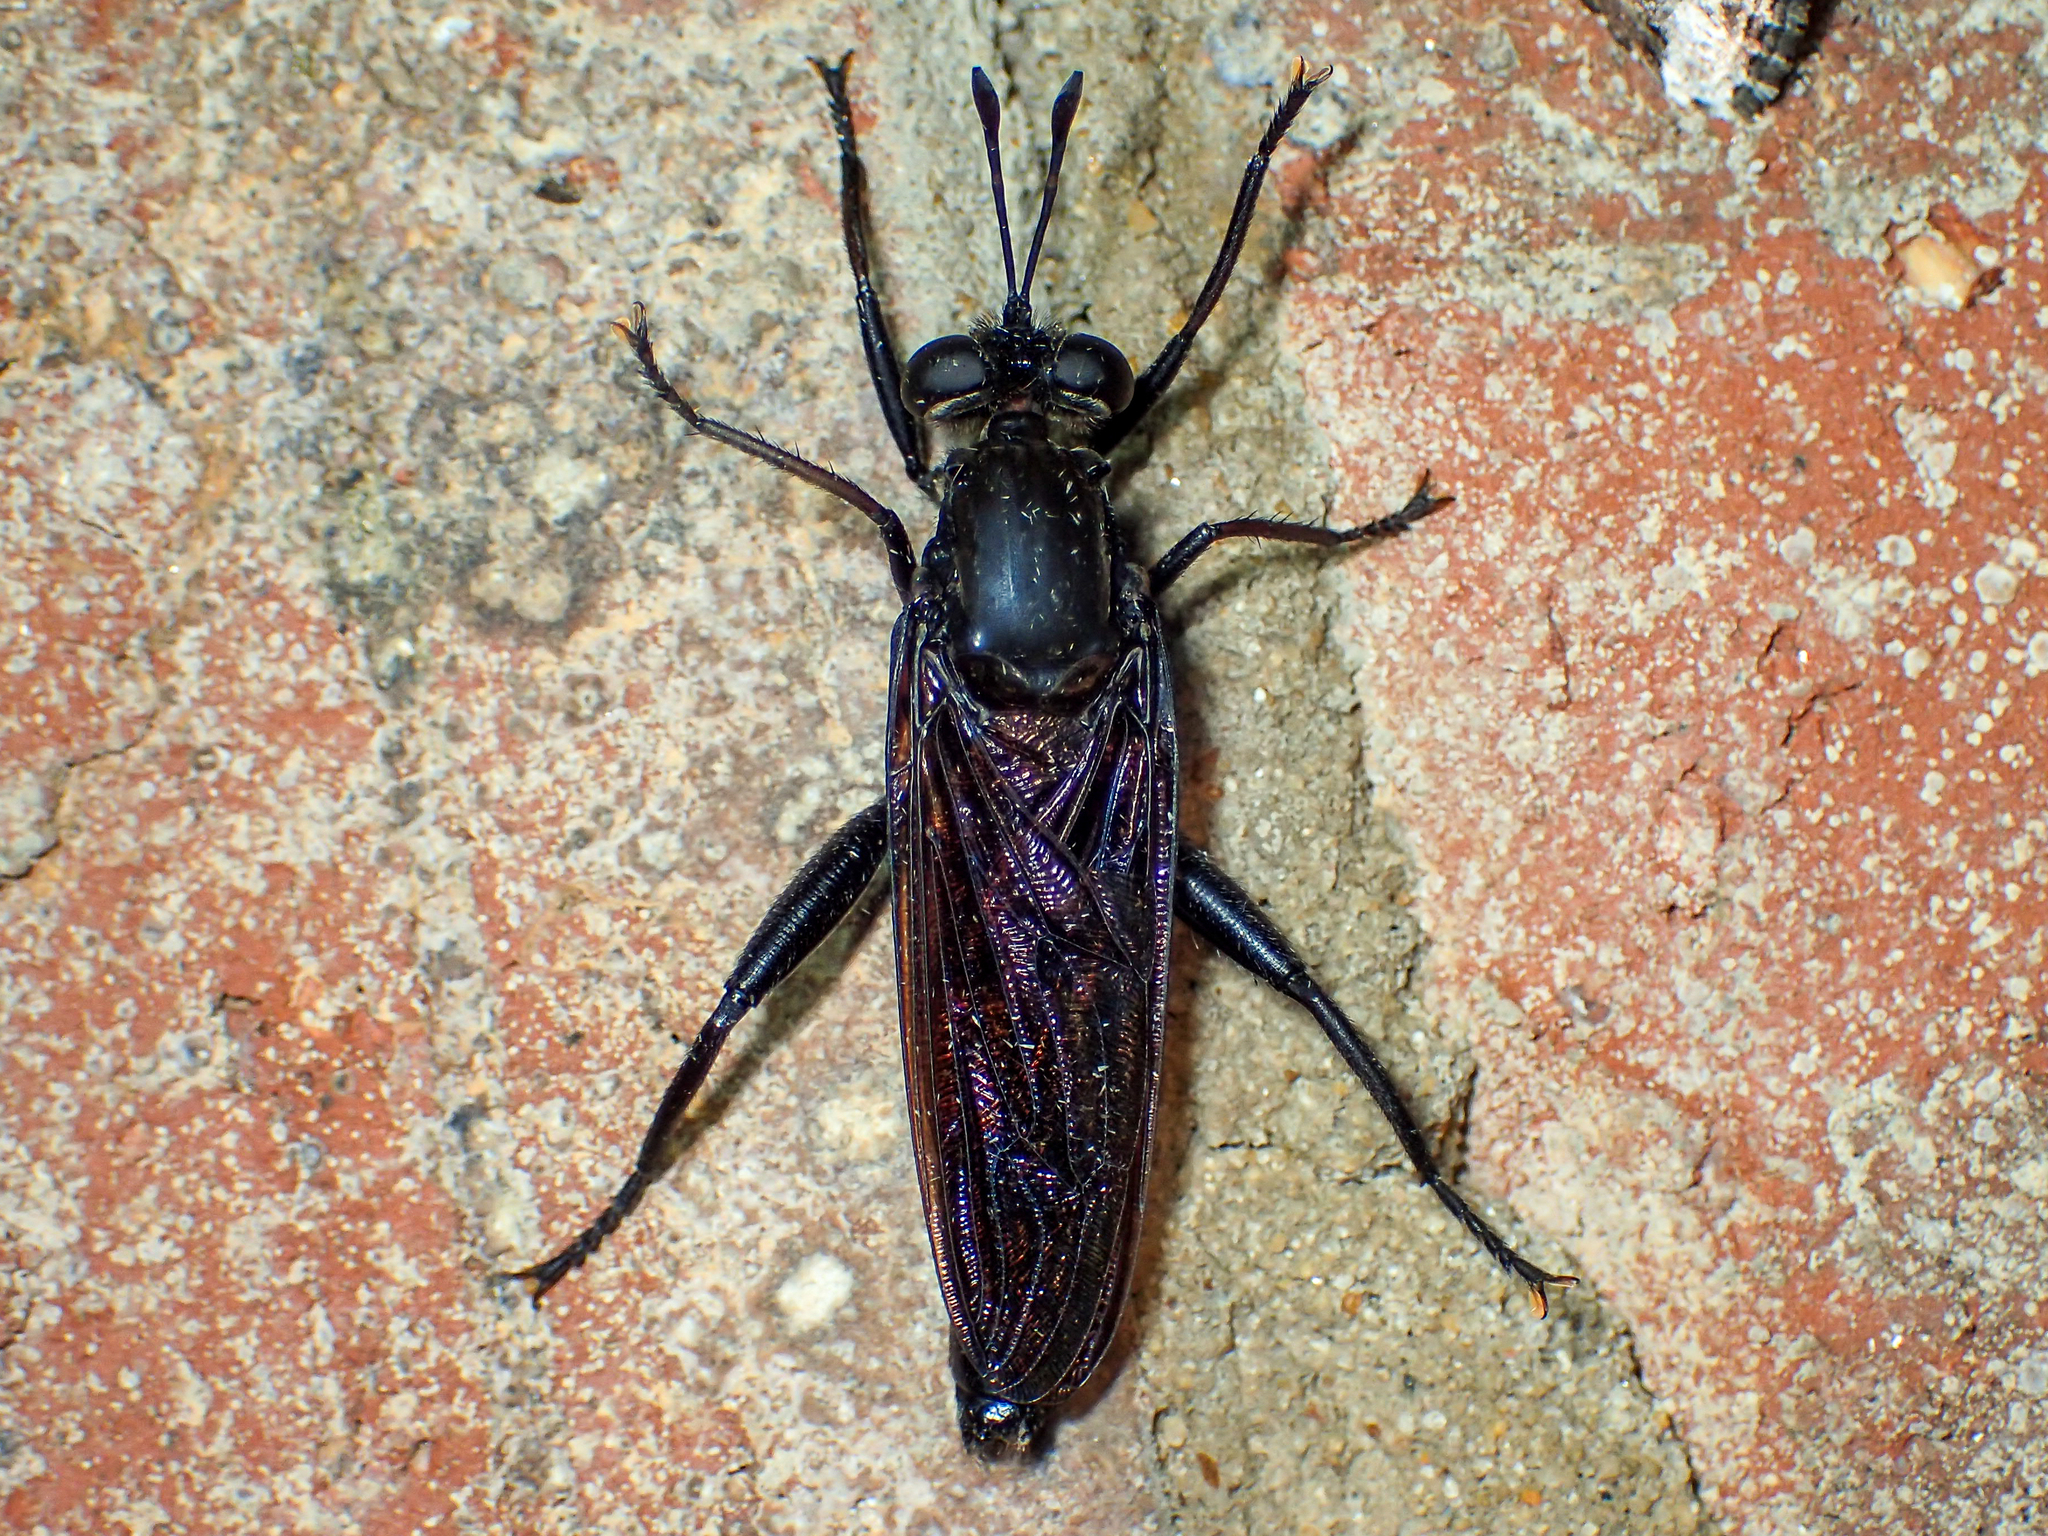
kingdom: Animalia
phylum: Arthropoda
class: Insecta
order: Diptera
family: Mydidae
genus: Mydas
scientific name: Mydas fulvifrons
